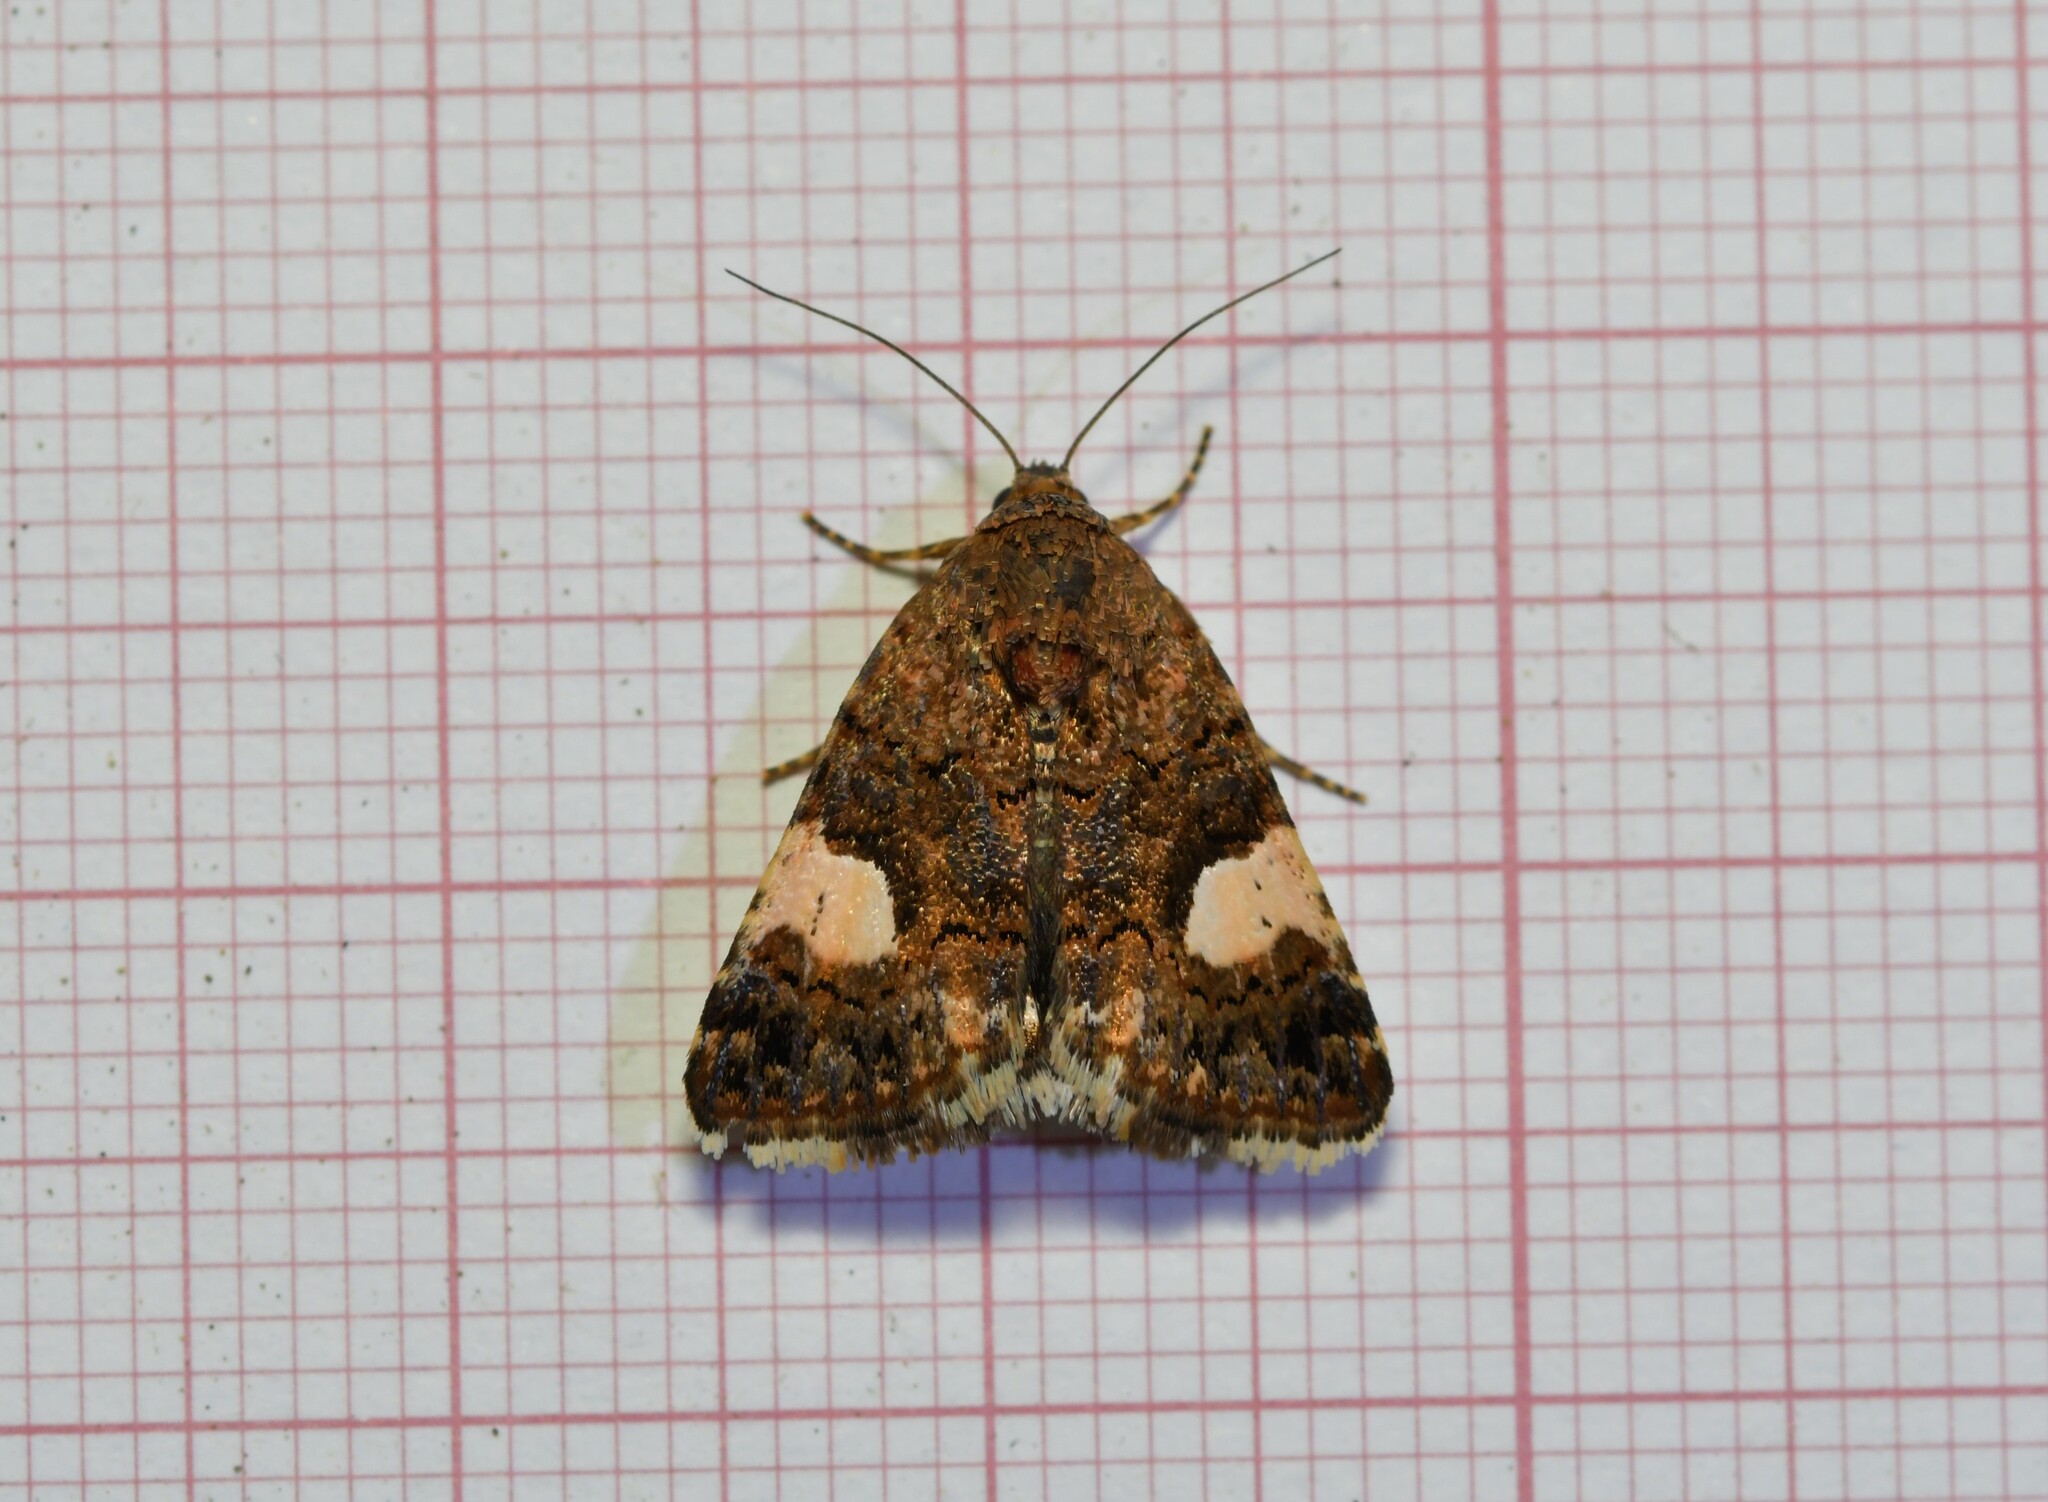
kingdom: Animalia
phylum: Arthropoda
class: Insecta
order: Lepidoptera
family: Erebidae
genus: Tyta
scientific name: Tyta luctuosa
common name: Four-spotted
